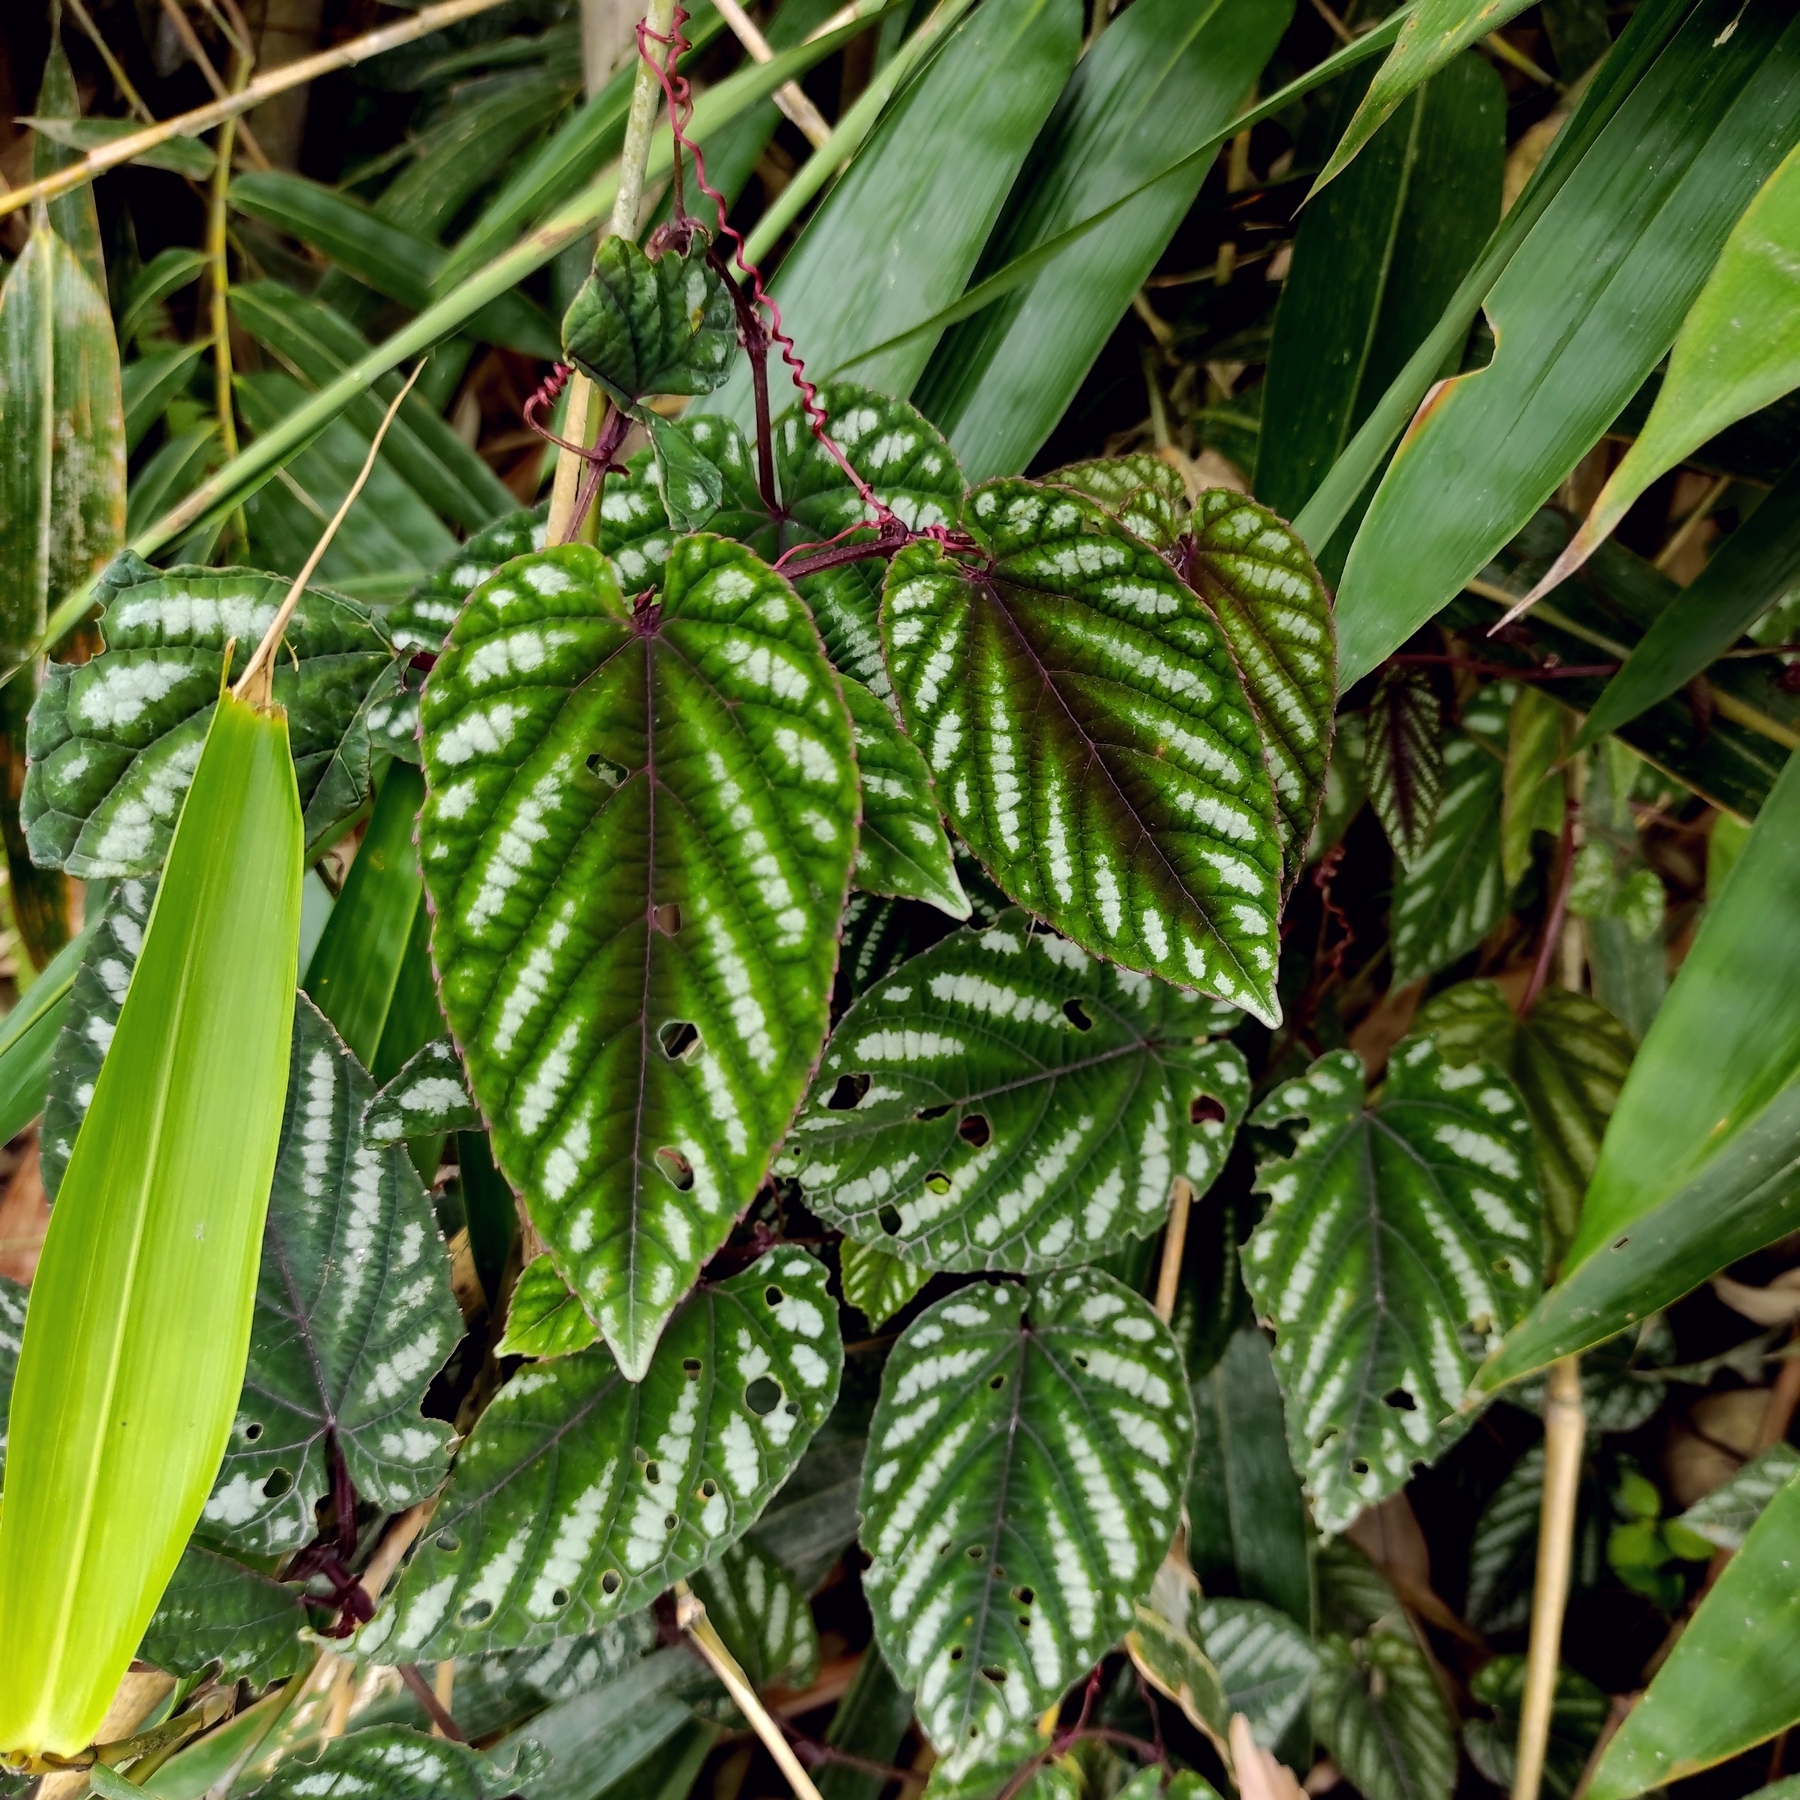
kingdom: Plantae
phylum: Tracheophyta
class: Magnoliopsida
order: Vitales
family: Vitaceae
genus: Cissus
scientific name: Cissus discolor
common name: Climbing-begonia
